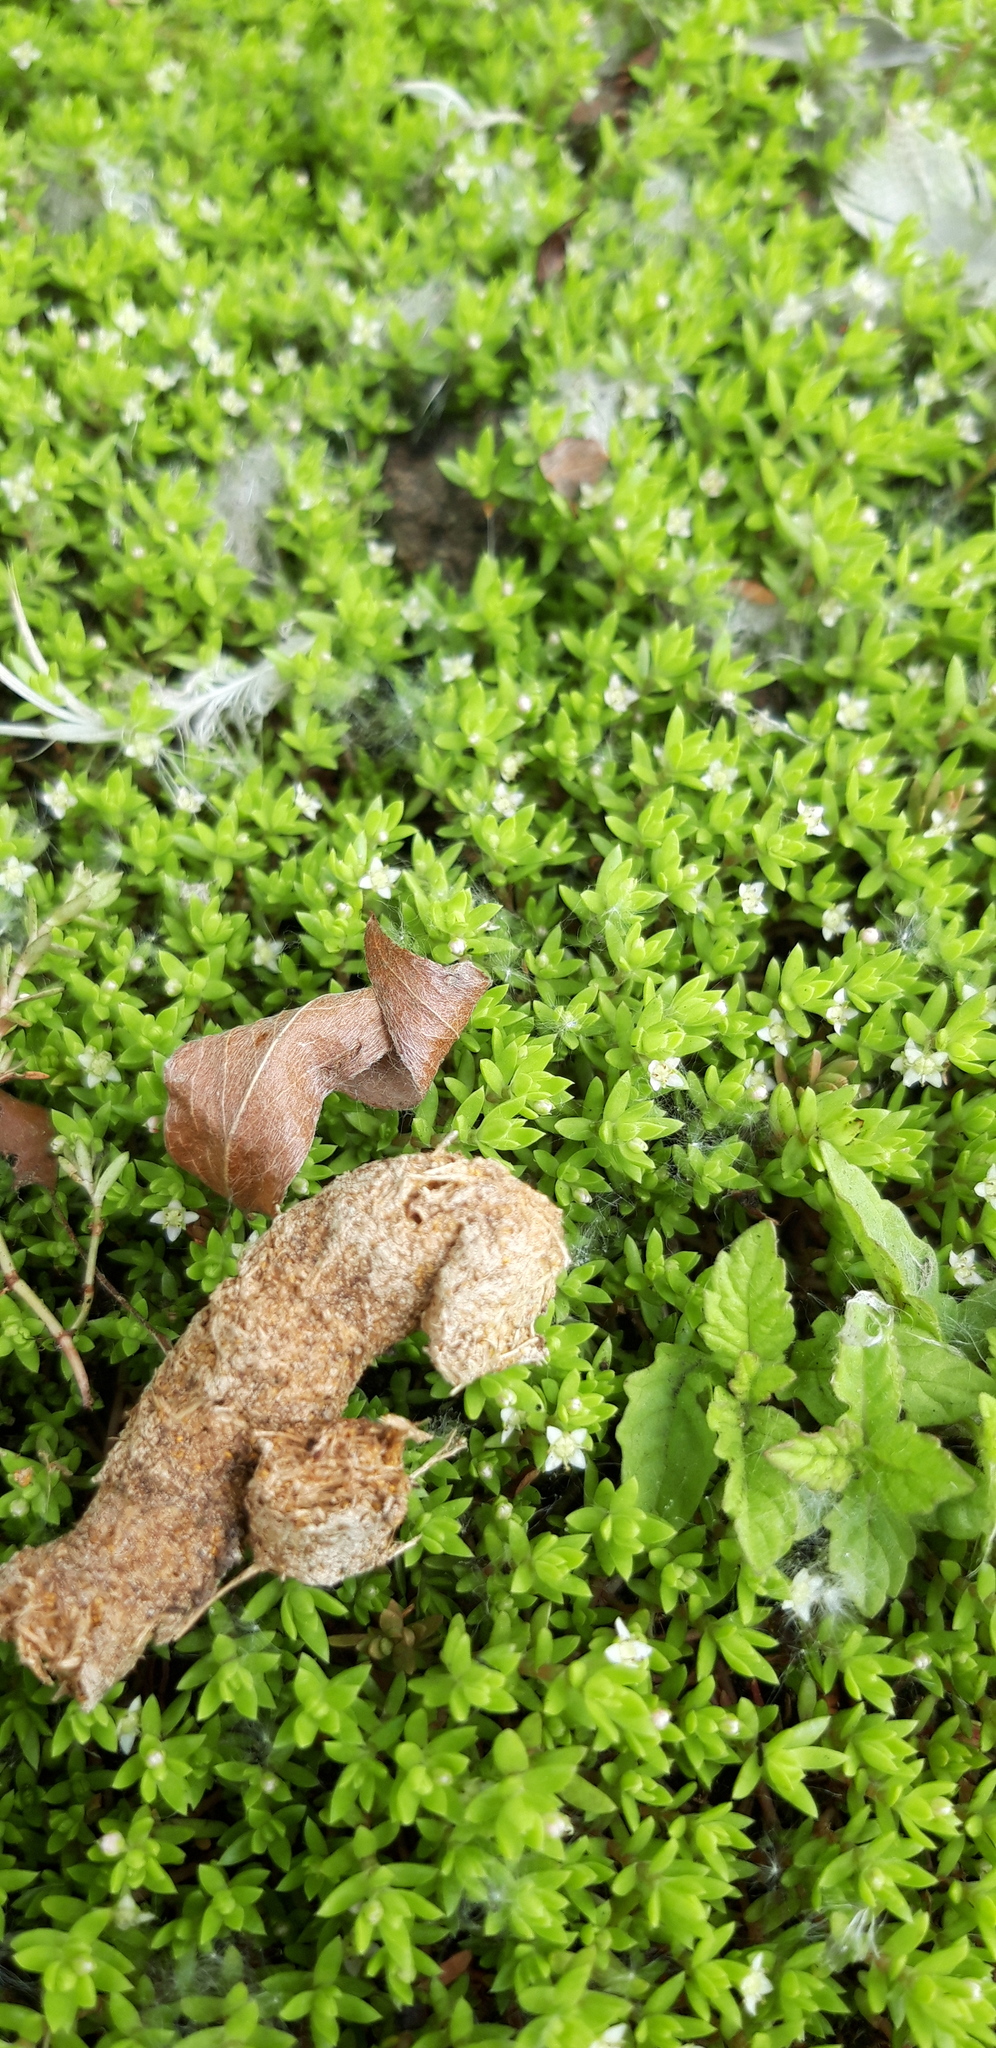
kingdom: Plantae
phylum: Tracheophyta
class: Magnoliopsida
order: Saxifragales
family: Crassulaceae
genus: Crassula
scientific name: Crassula helmsii
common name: New zealand pigmyweed
